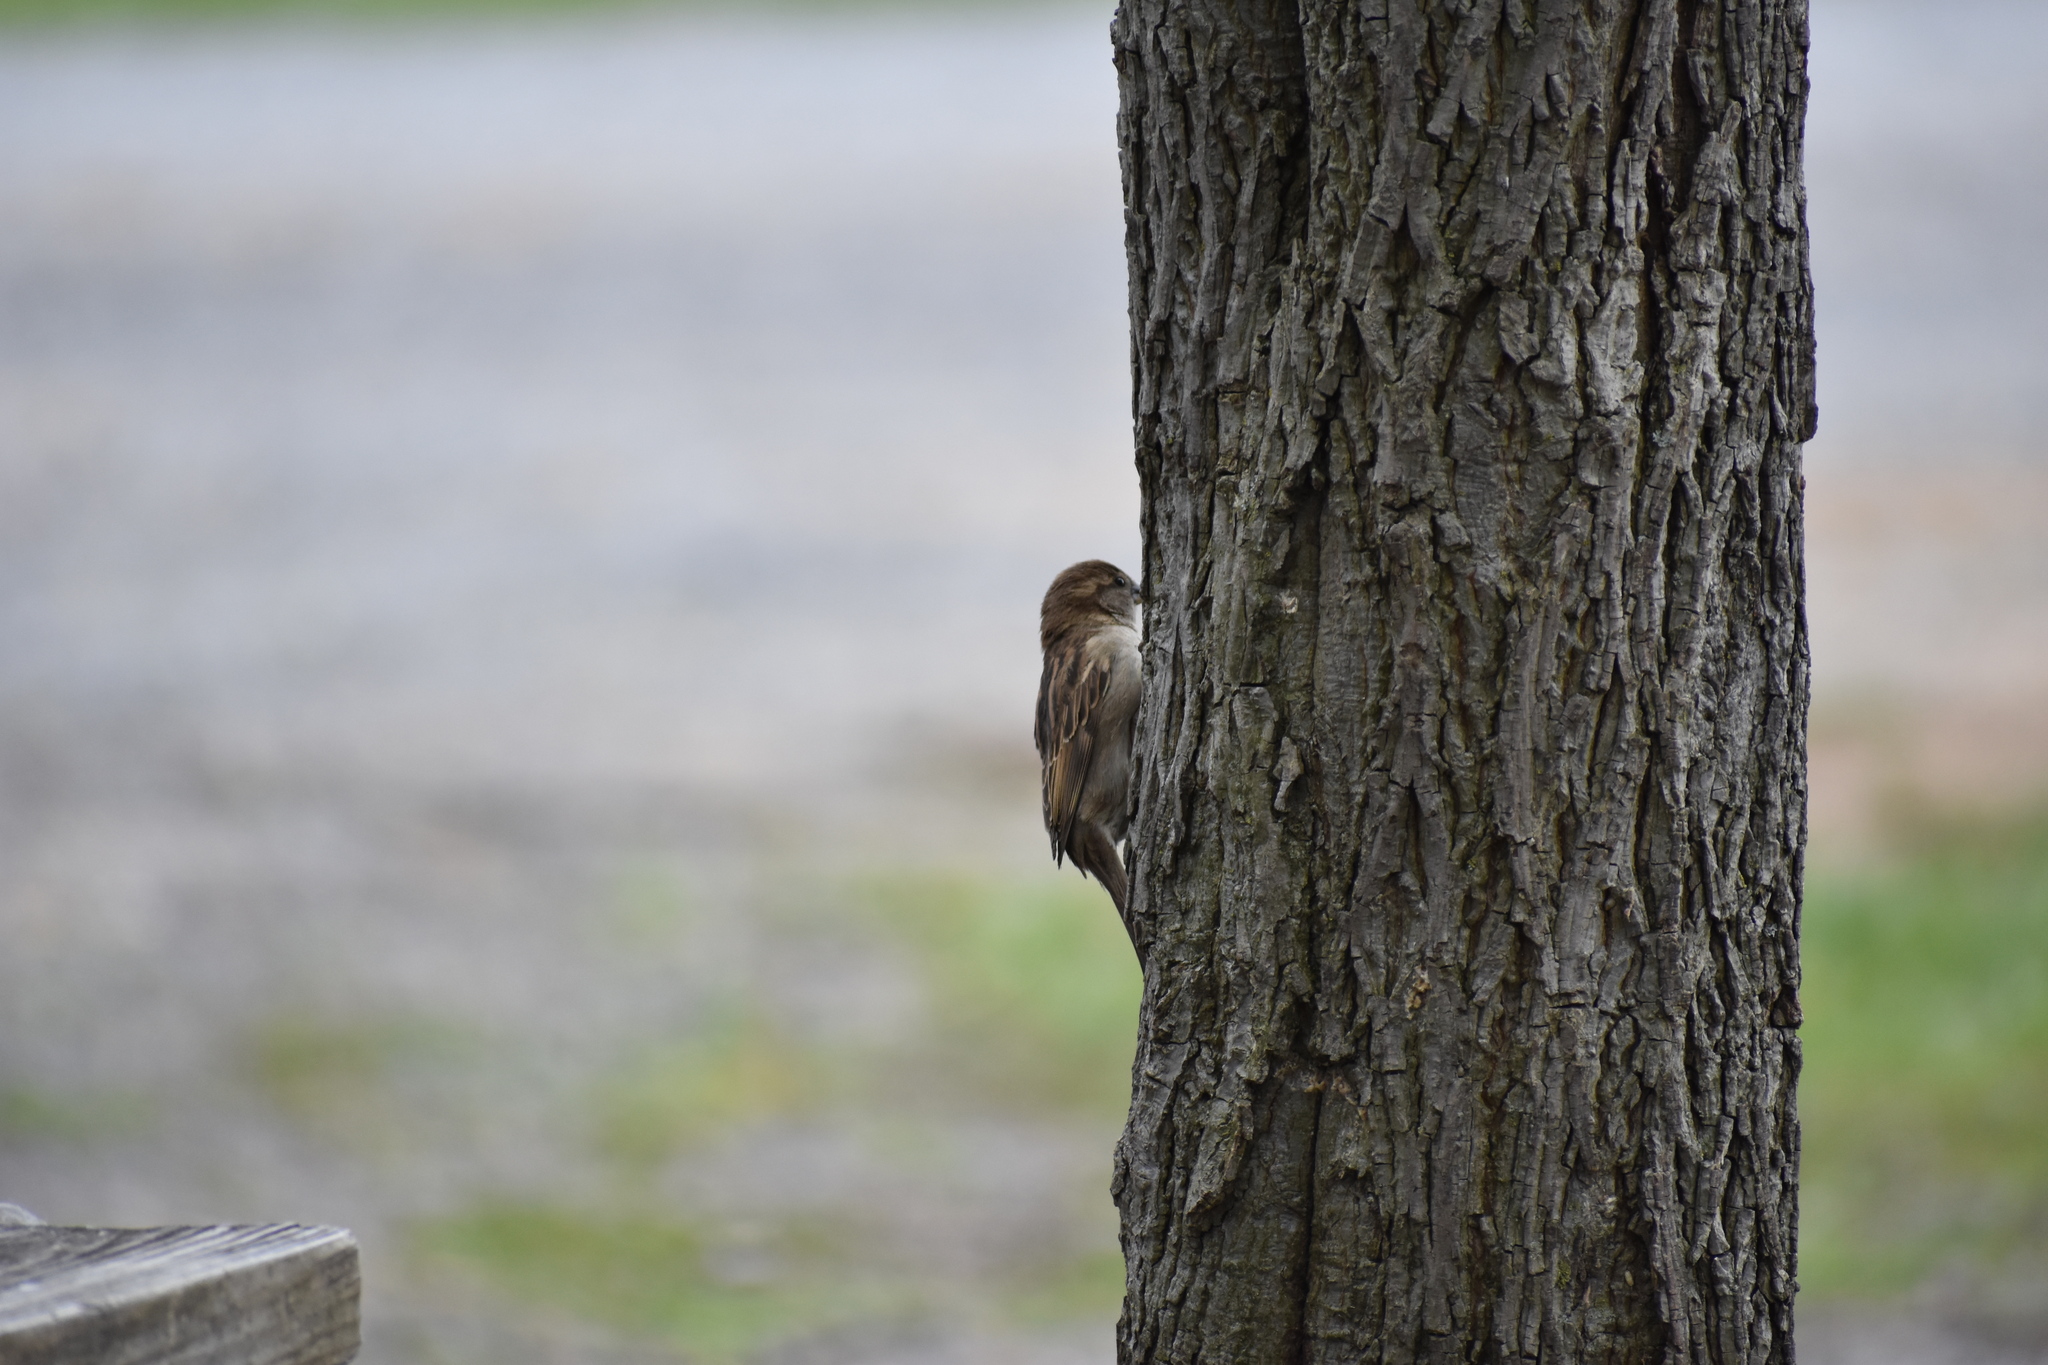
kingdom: Animalia
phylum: Chordata
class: Aves
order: Passeriformes
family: Passeridae
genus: Passer
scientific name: Passer domesticus
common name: House sparrow
